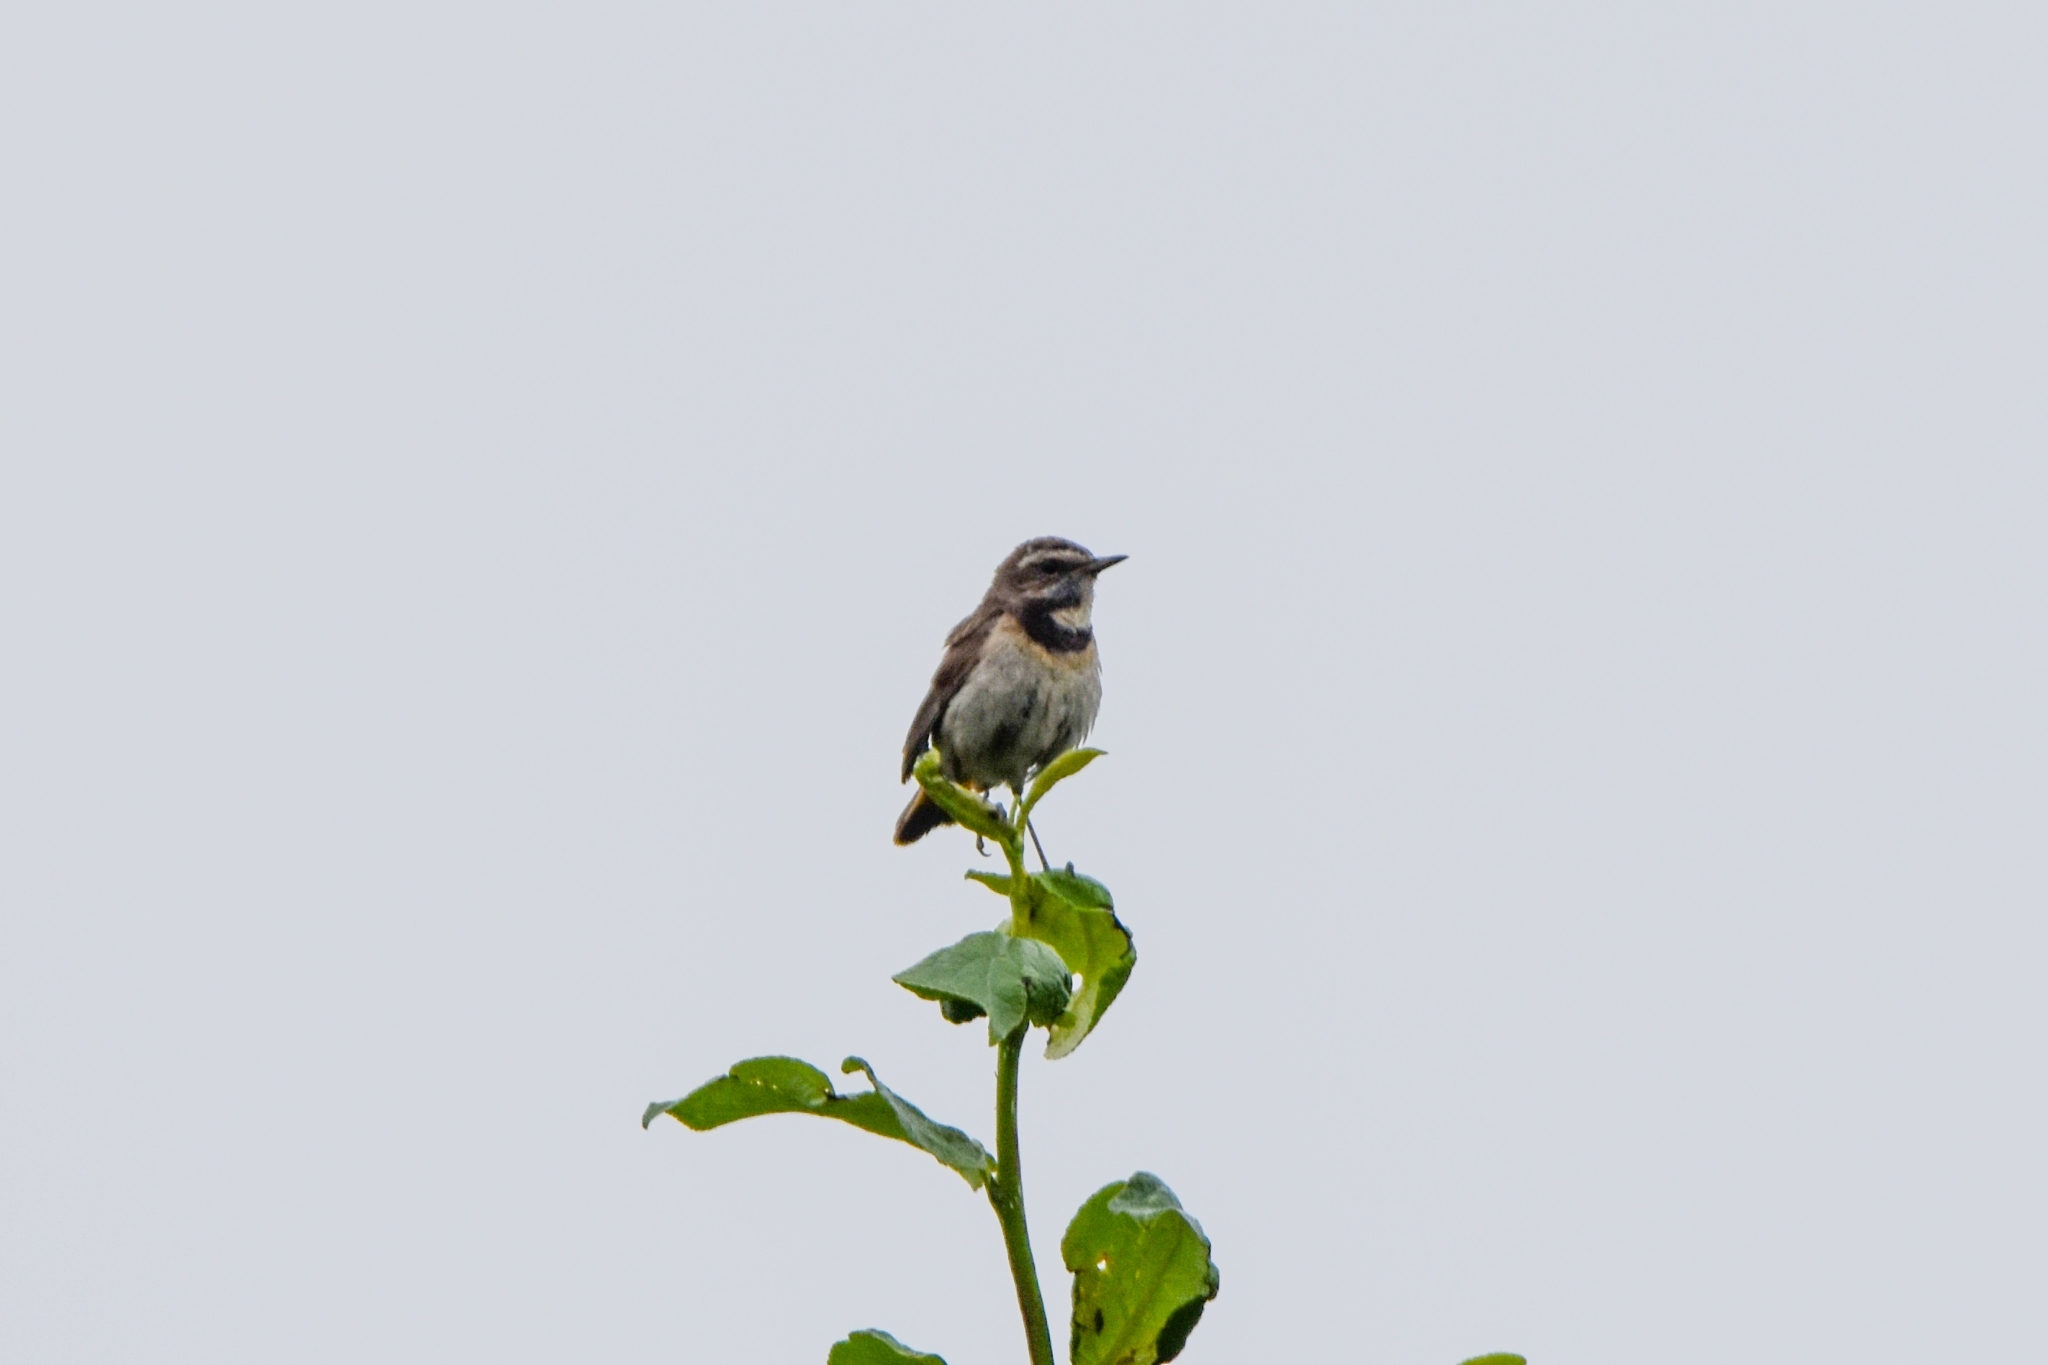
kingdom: Animalia
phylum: Chordata
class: Aves
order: Passeriformes
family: Muscicapidae
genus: Luscinia
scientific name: Luscinia svecica
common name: Bluethroat
